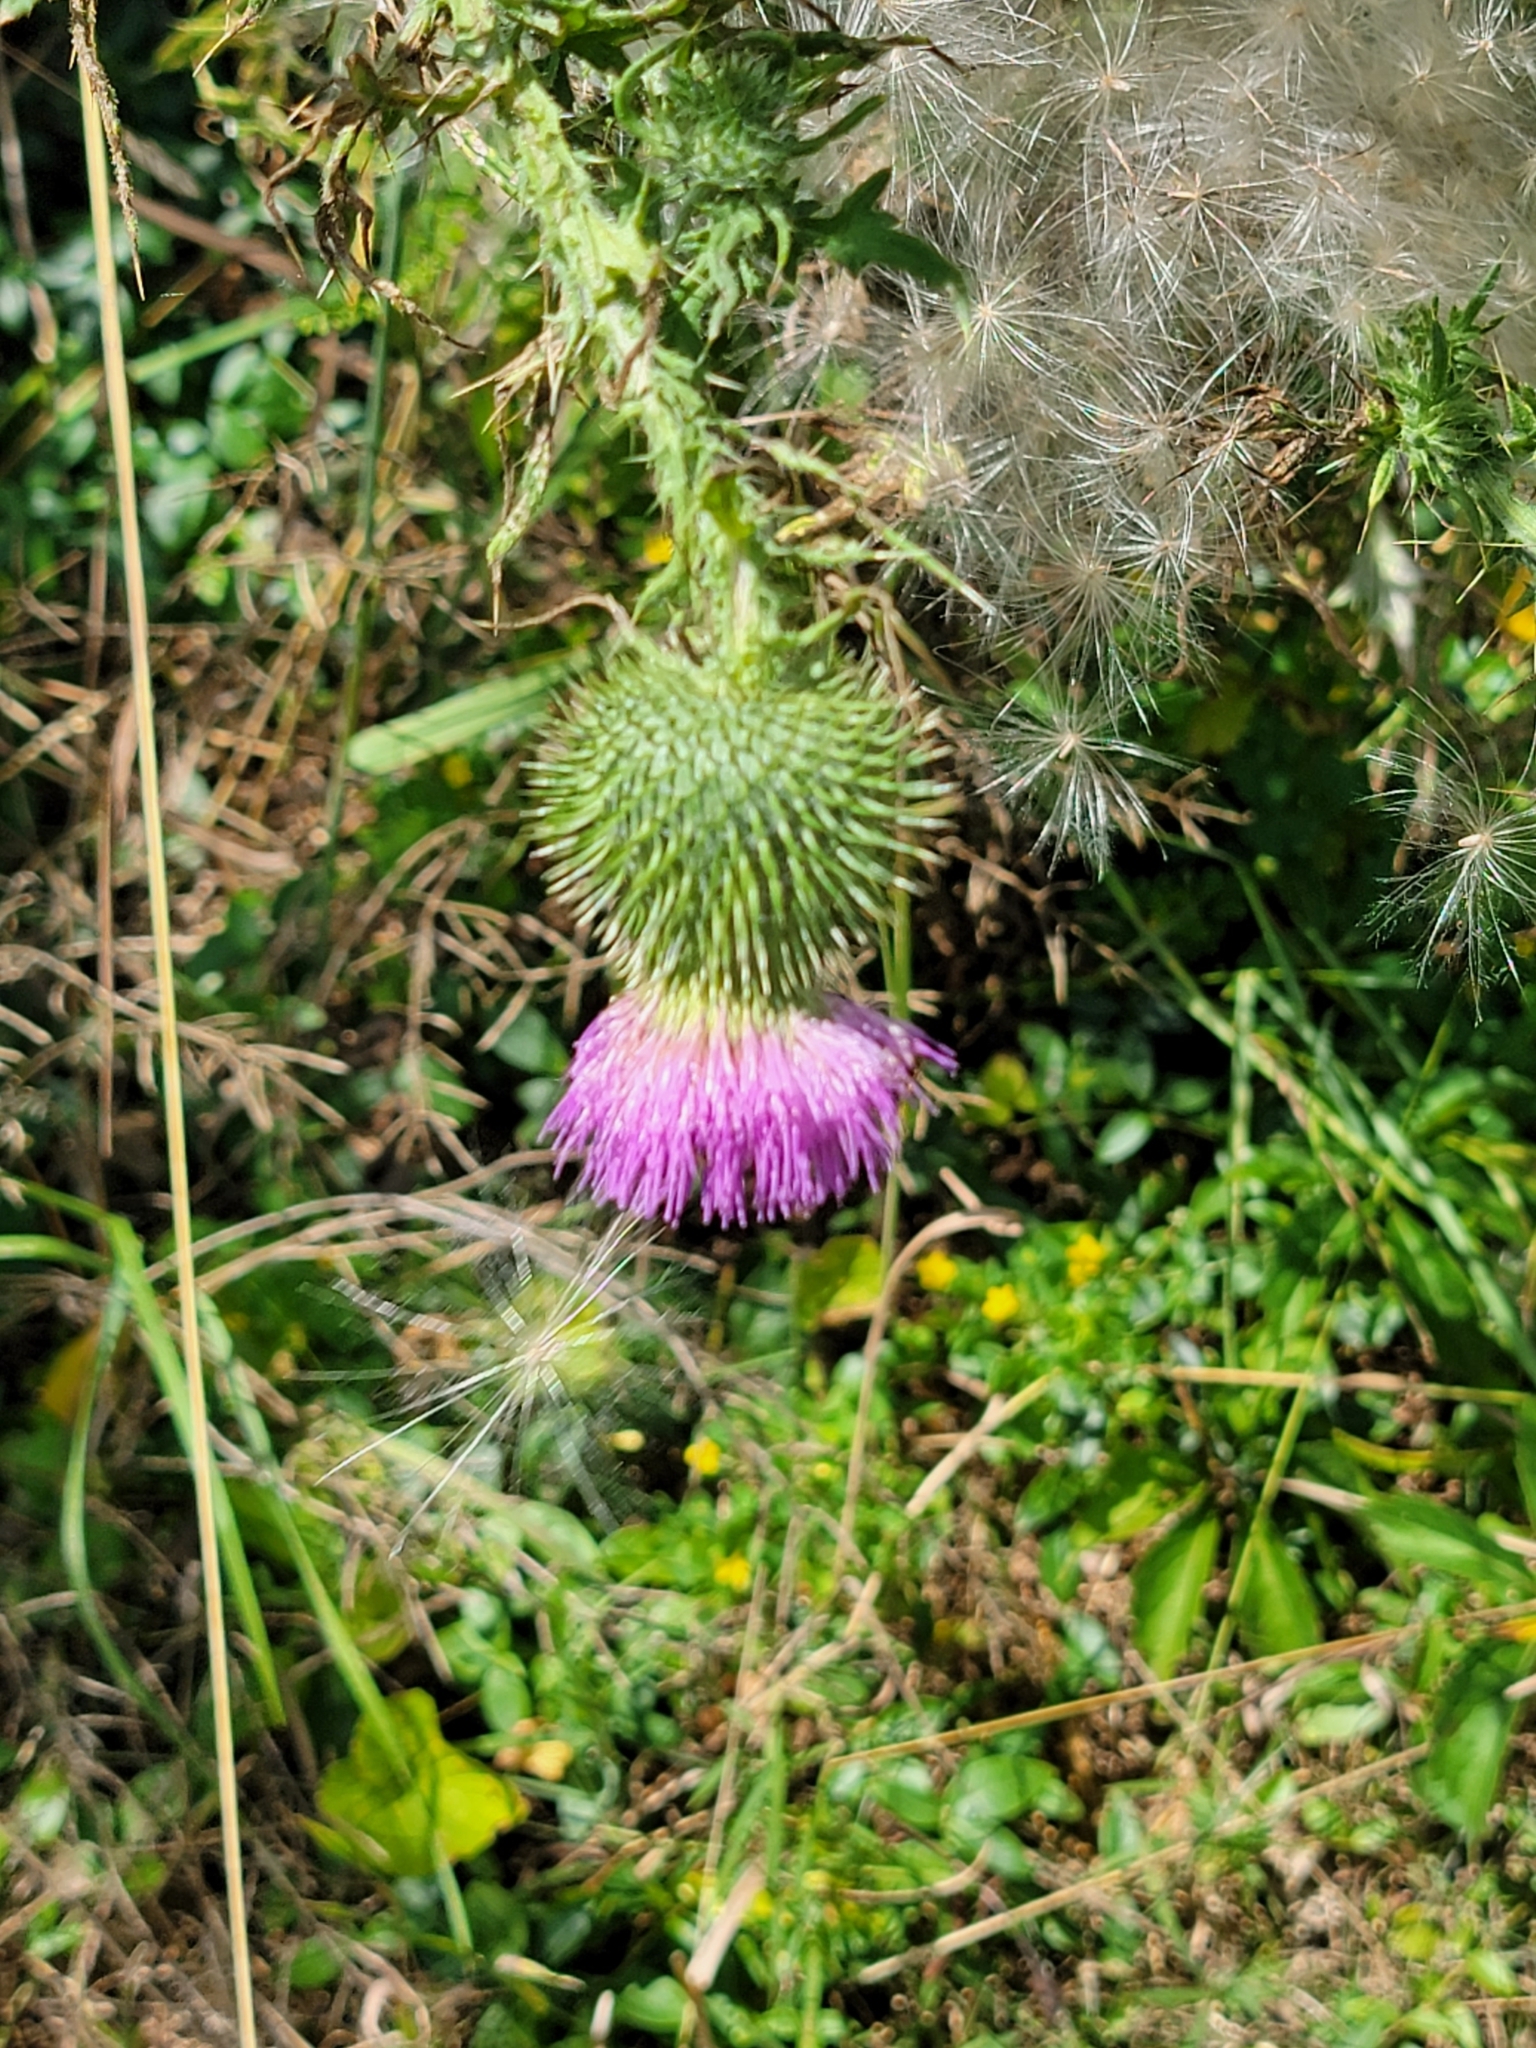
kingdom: Plantae
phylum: Tracheophyta
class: Magnoliopsida
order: Asterales
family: Asteraceae
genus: Cirsium
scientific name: Cirsium vulgare
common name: Bull thistle
